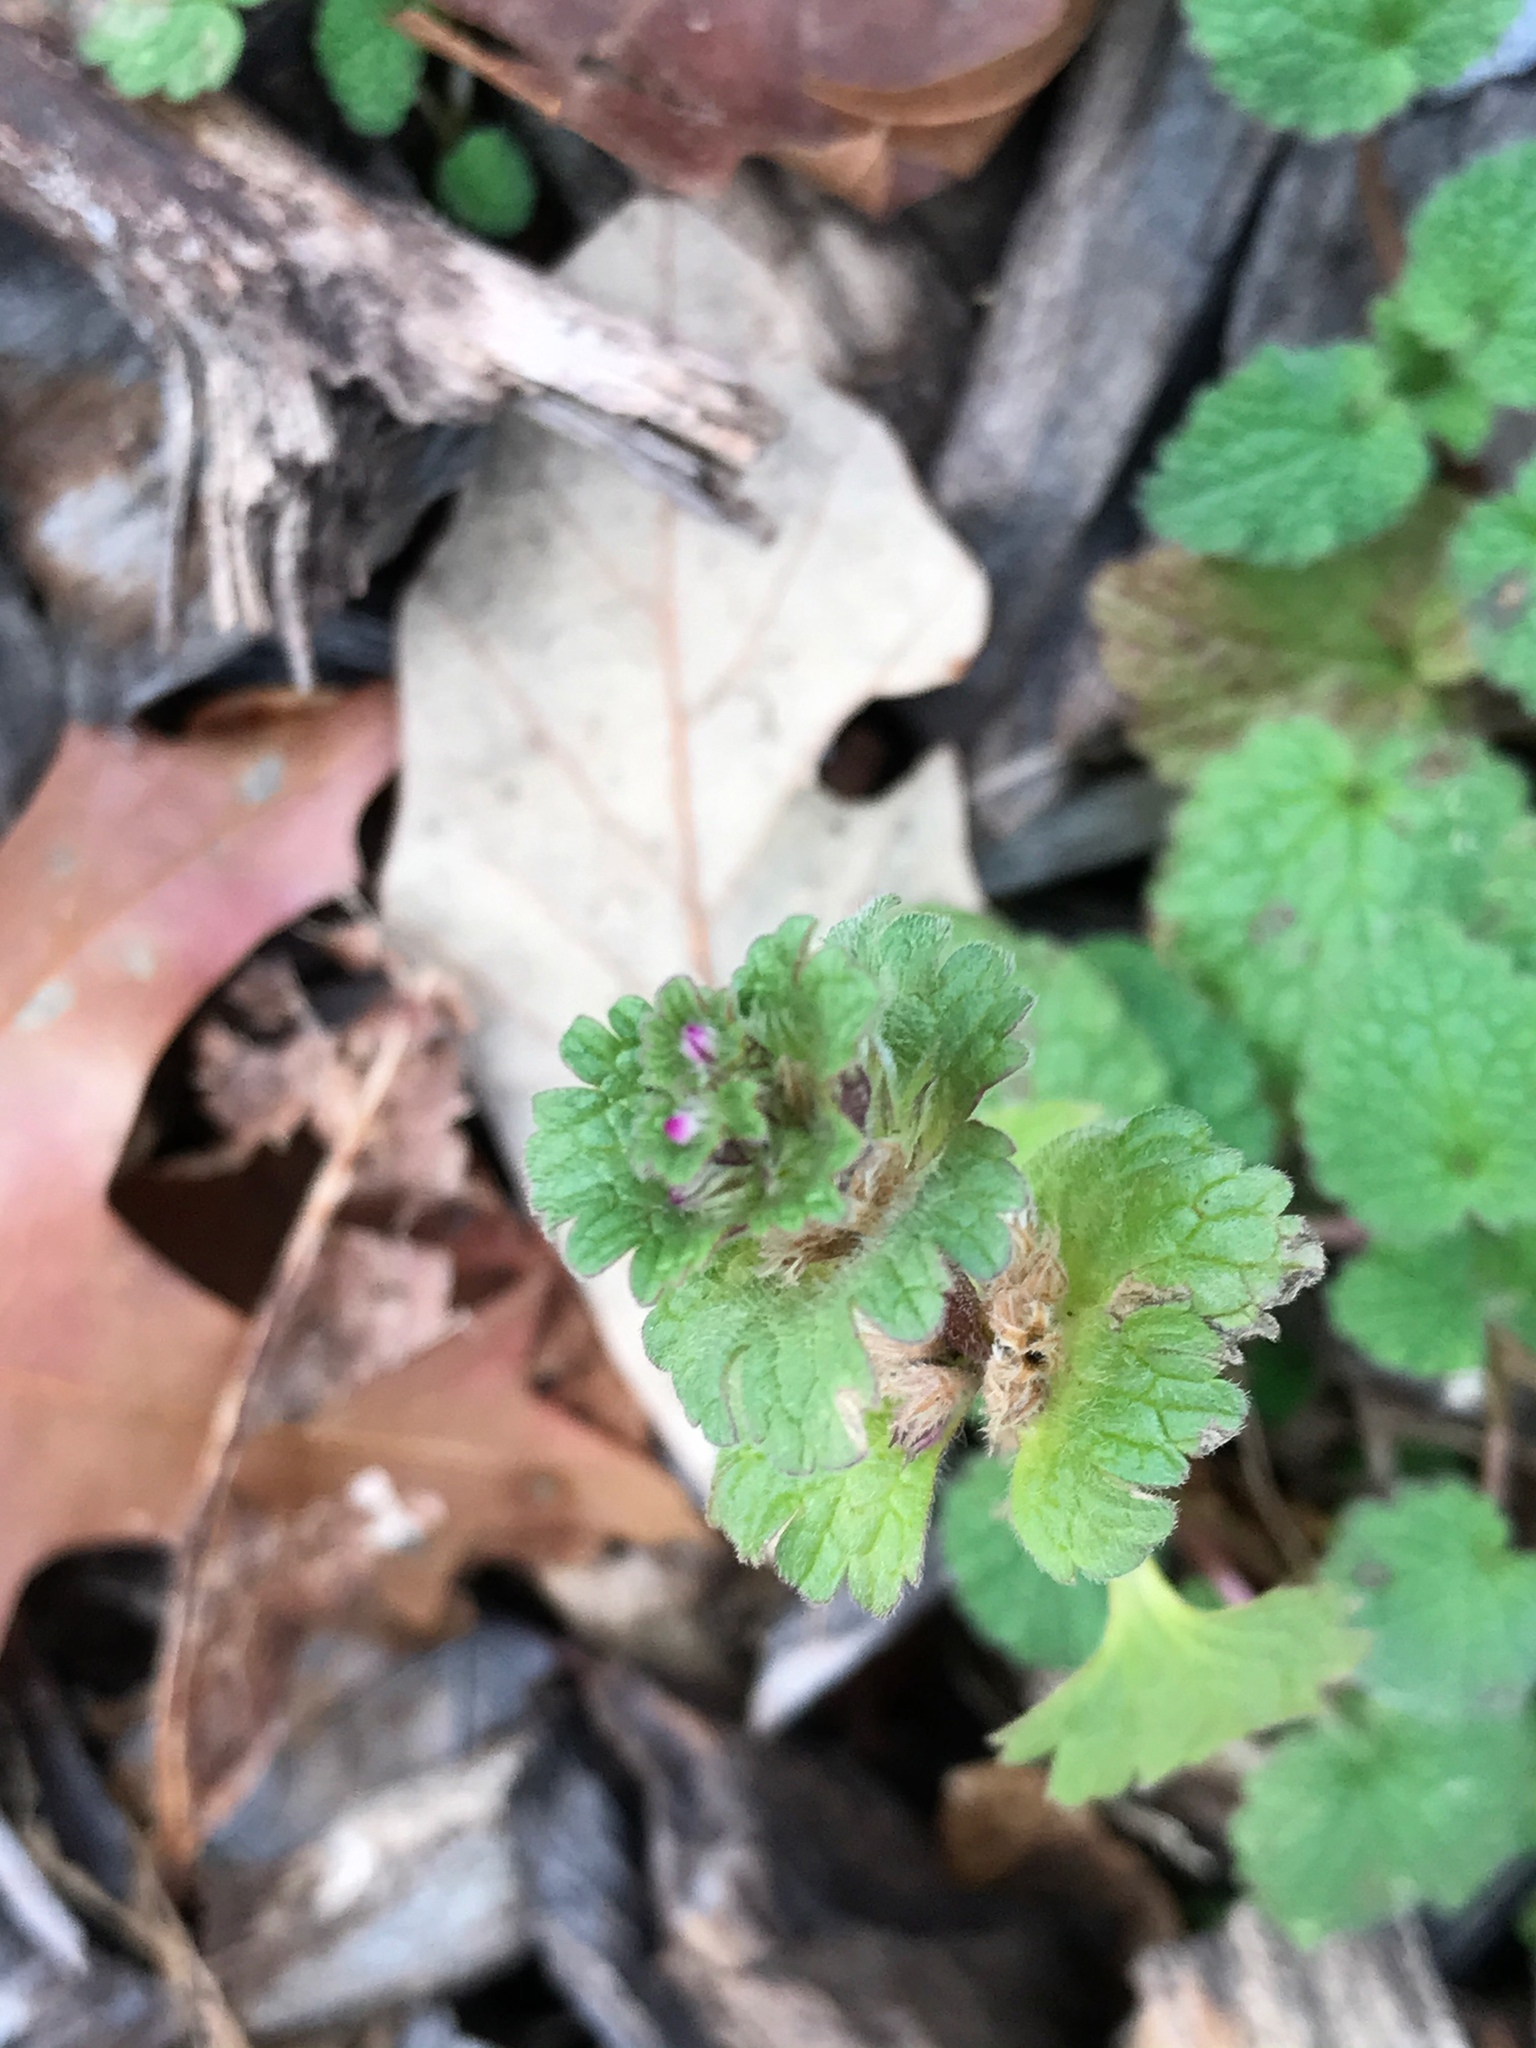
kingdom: Plantae
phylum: Tracheophyta
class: Magnoliopsida
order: Lamiales
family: Lamiaceae
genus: Lamium
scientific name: Lamium amplexicaule
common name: Henbit dead-nettle
